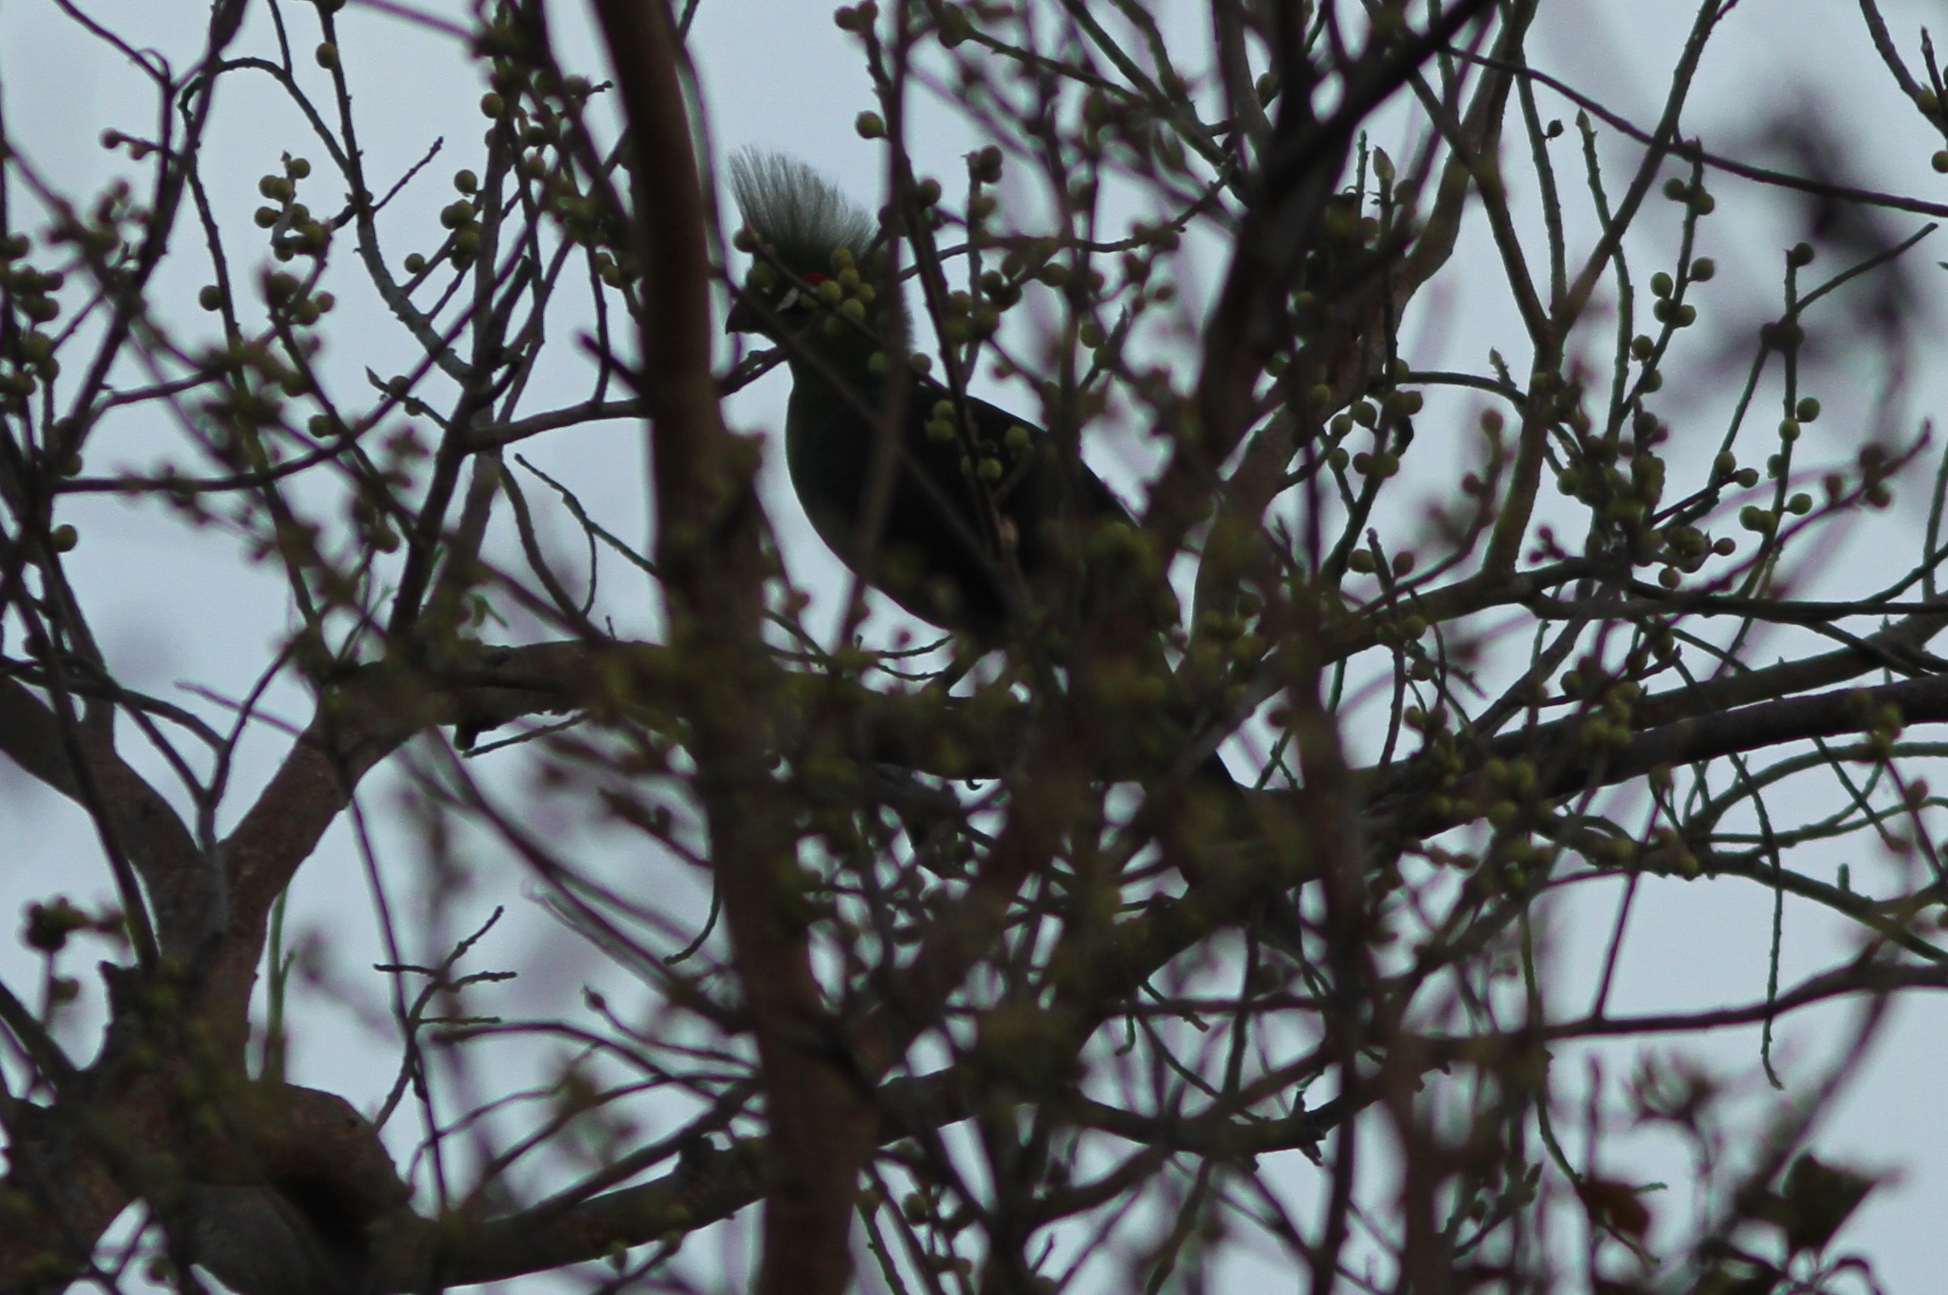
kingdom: Animalia
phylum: Chordata
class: Aves
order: Musophagiformes
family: Musophagidae
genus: Tauraco
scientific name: Tauraco persa
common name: Guinea turaco
